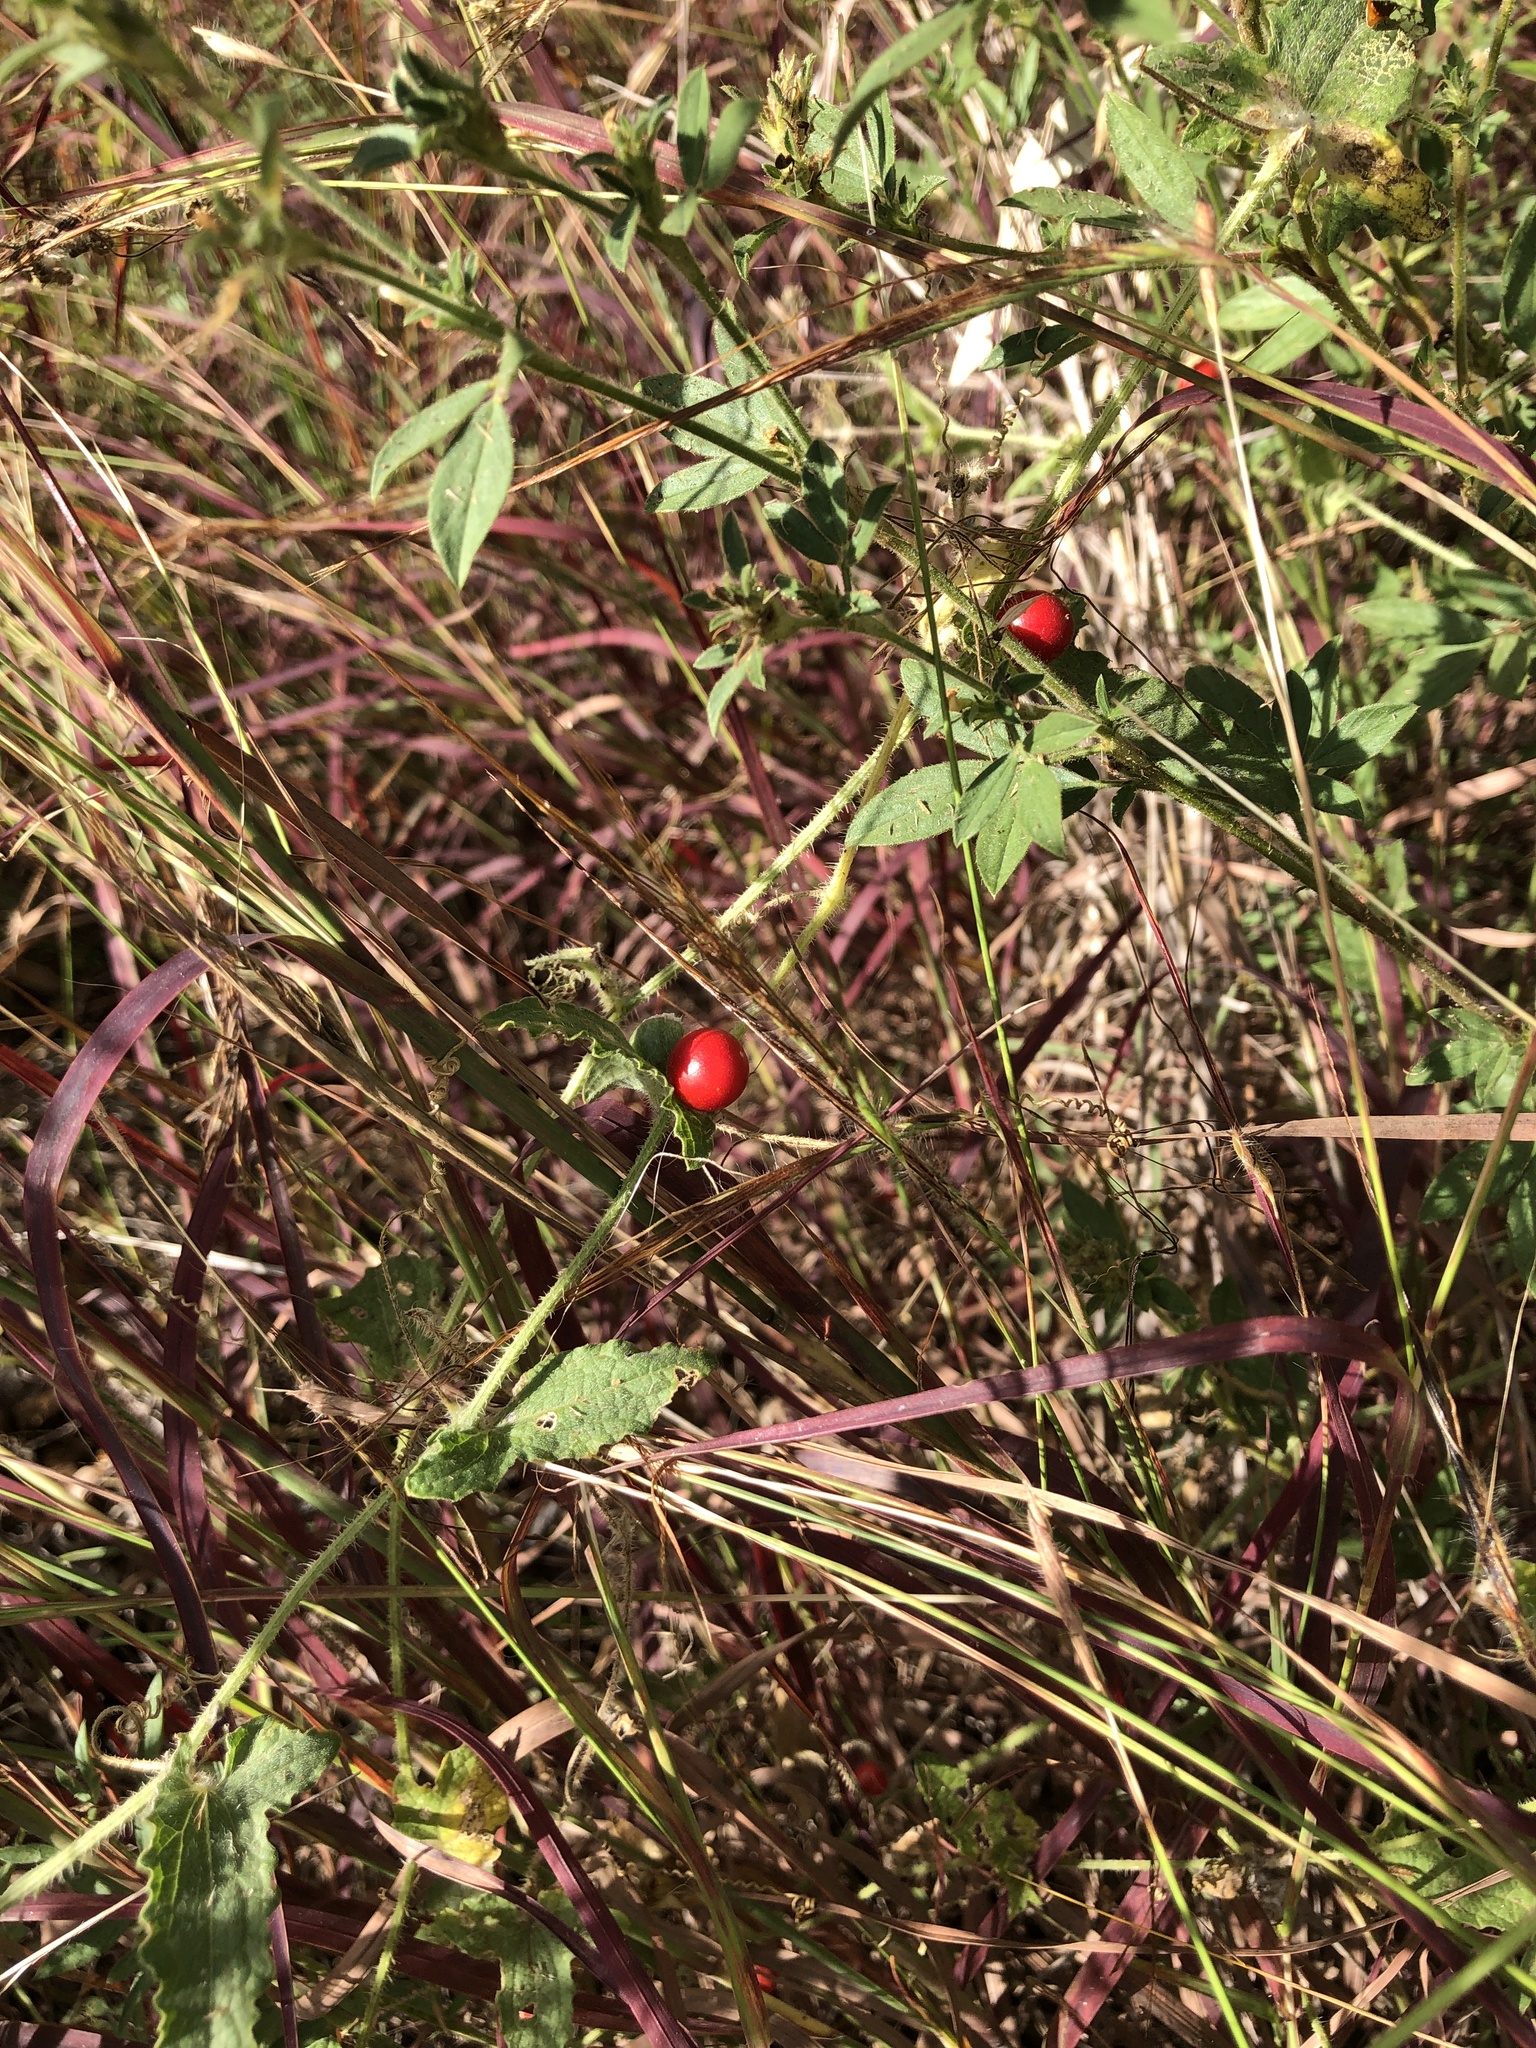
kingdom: Plantae
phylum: Tracheophyta
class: Magnoliopsida
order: Cucurbitales
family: Cucurbitaceae
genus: Cucumis
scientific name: Cucumis althaeoides
